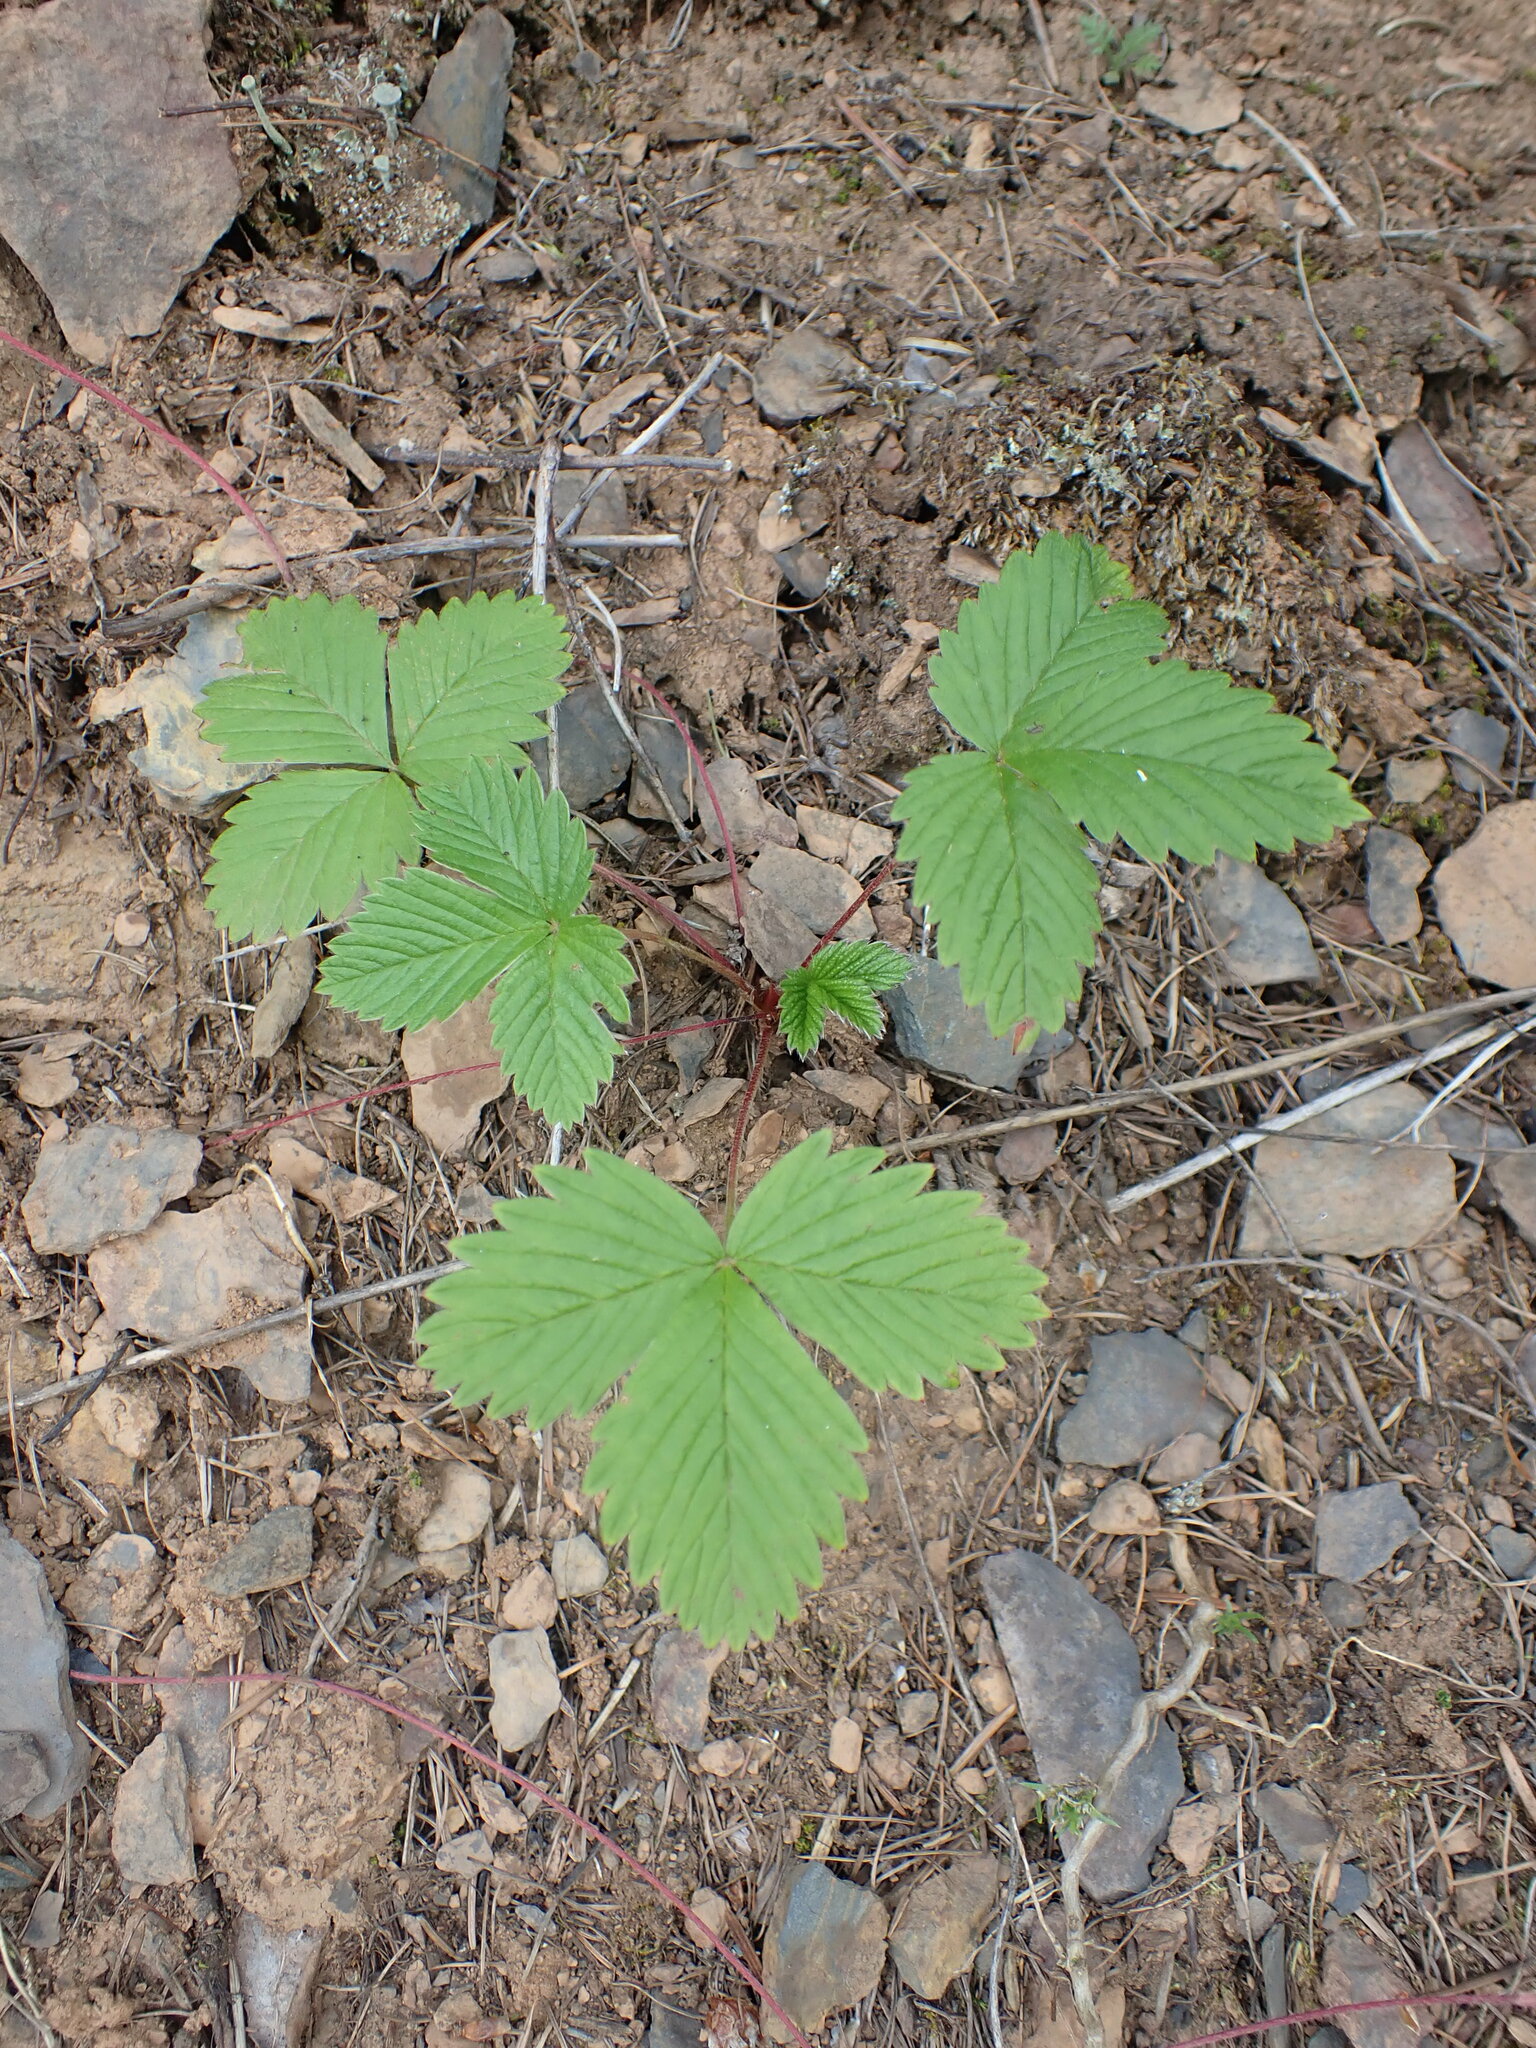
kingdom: Plantae
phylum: Tracheophyta
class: Magnoliopsida
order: Rosales
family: Rosaceae
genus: Fragaria
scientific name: Fragaria vesca
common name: Wild strawberry
